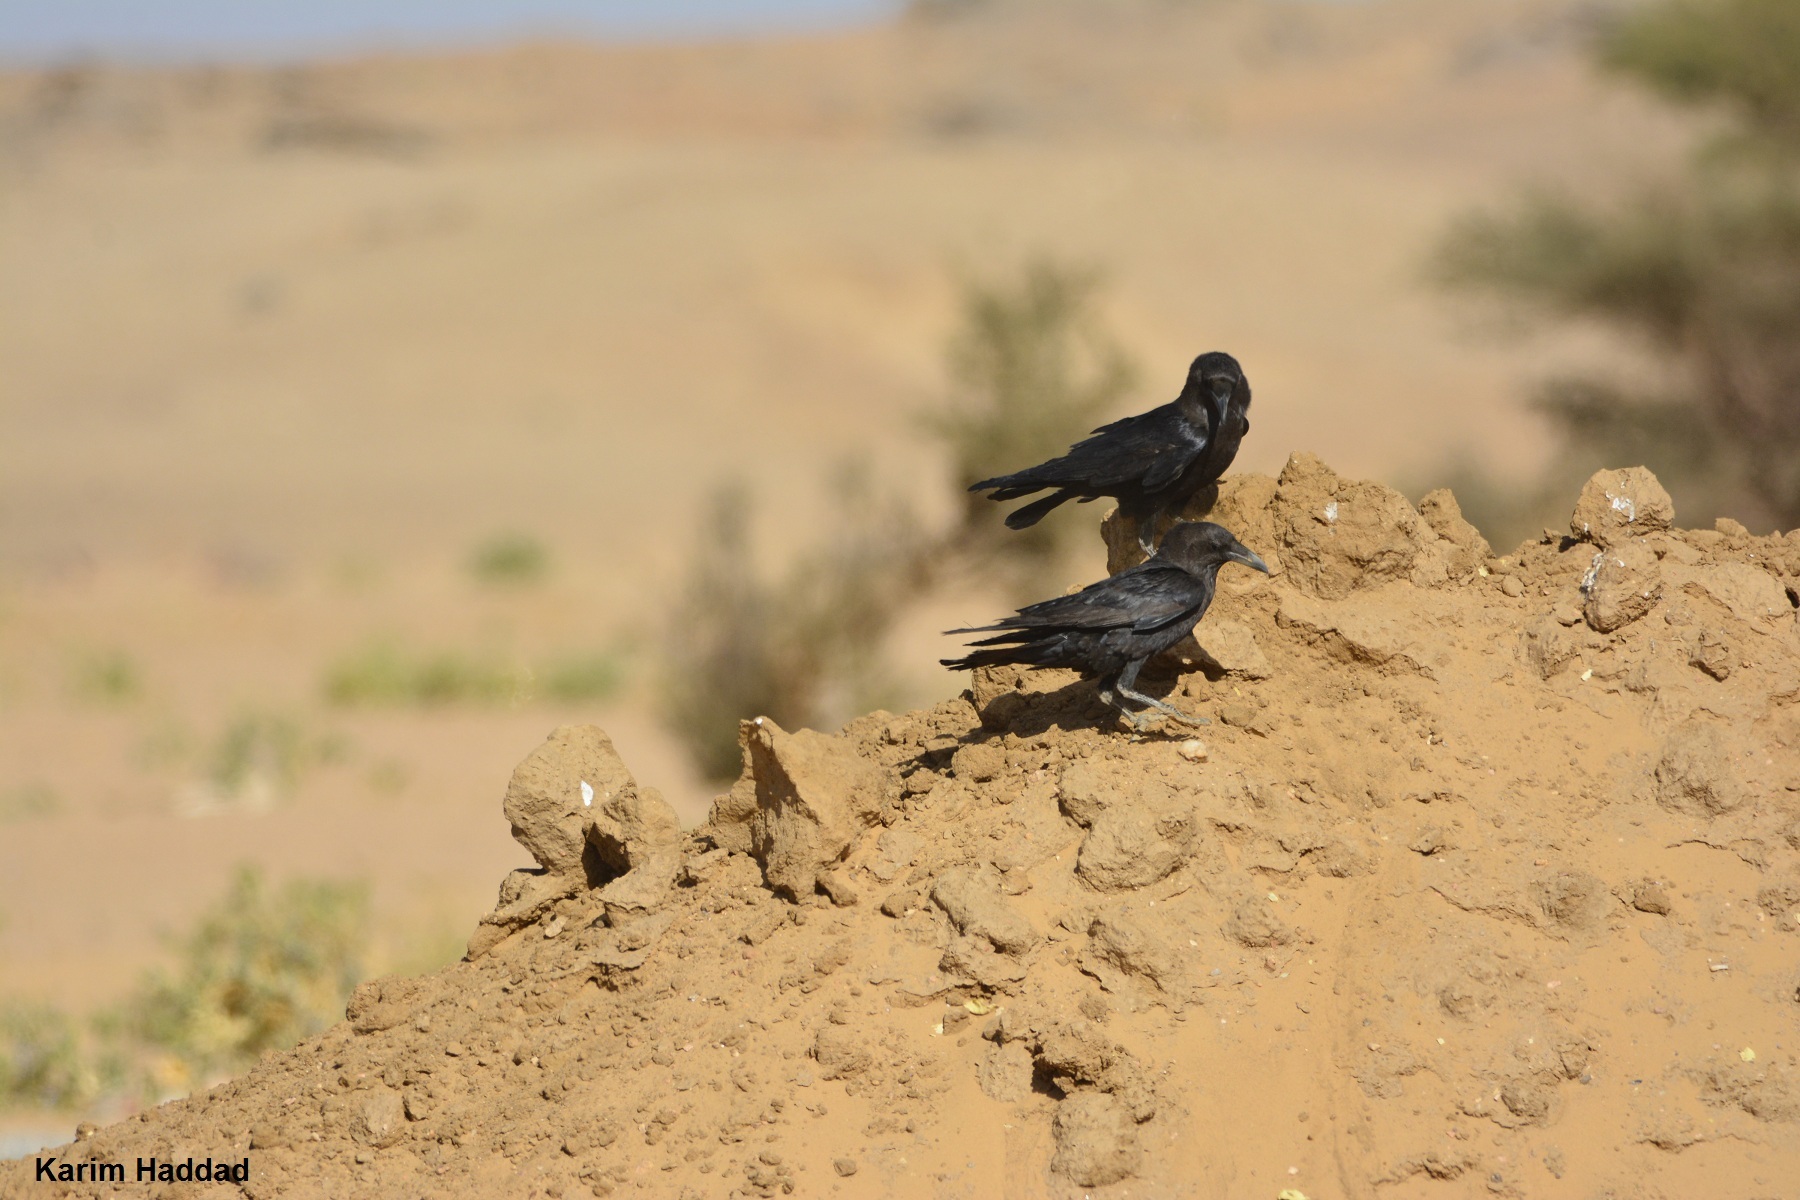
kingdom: Animalia
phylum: Chordata
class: Aves
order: Passeriformes
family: Corvidae
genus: Corvus
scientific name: Corvus ruficollis
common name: Brown-necked raven
